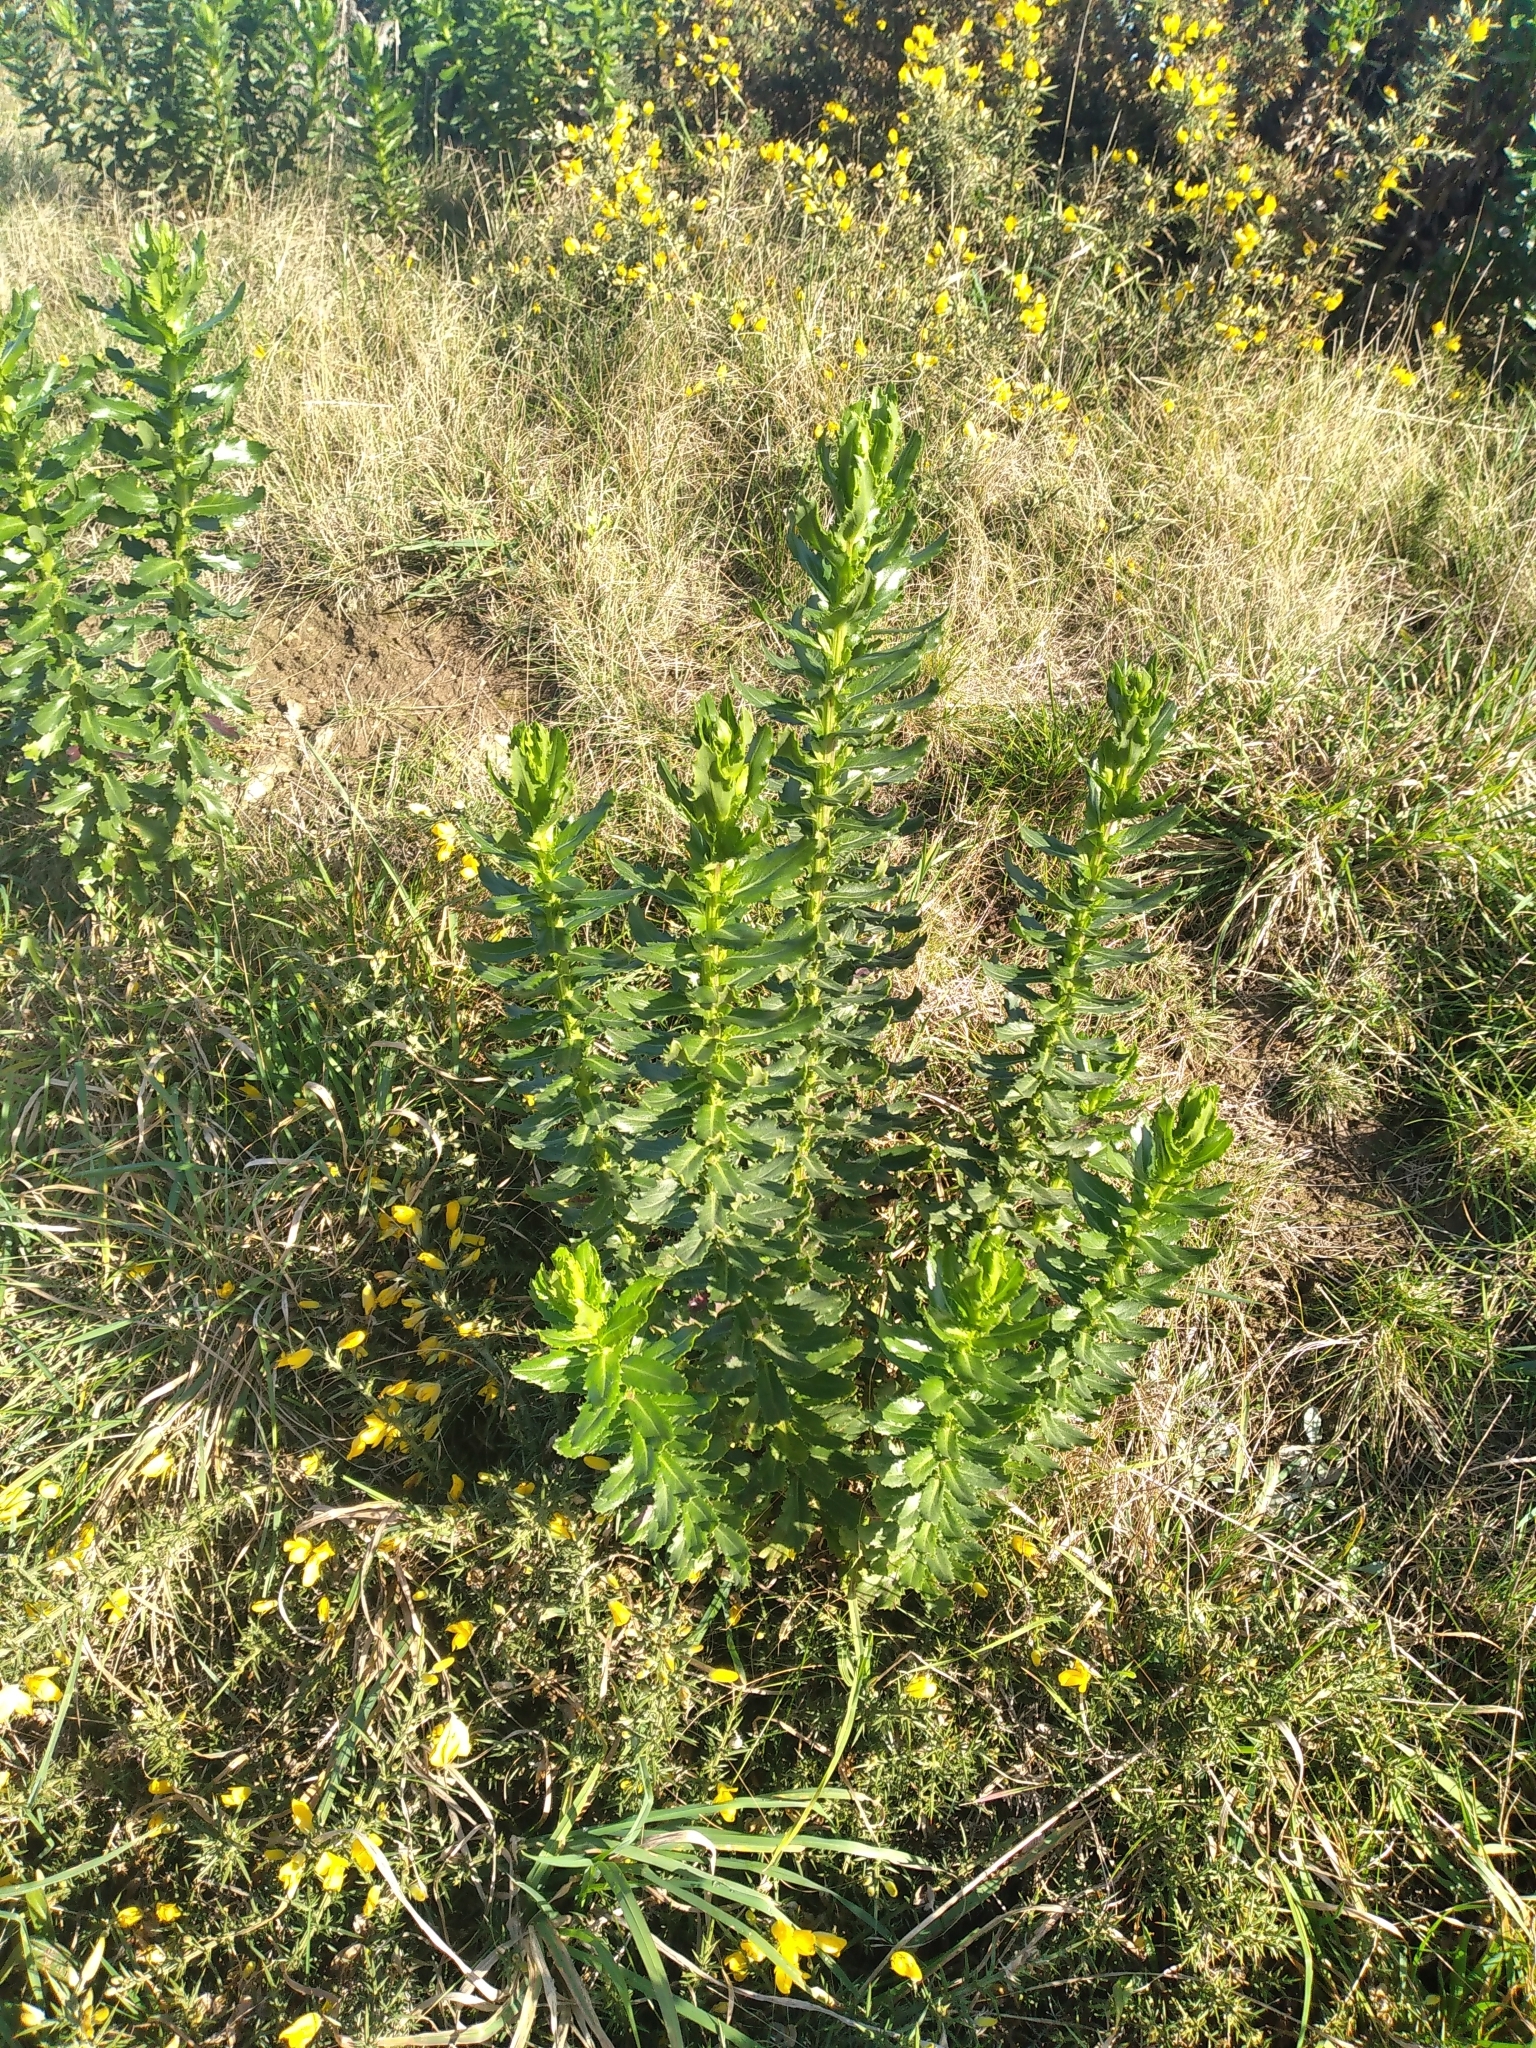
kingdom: Plantae
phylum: Tracheophyta
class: Magnoliopsida
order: Asterales
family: Asteraceae
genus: Senecio
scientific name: Senecio glastifolius
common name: Woad-leaved ragwort
